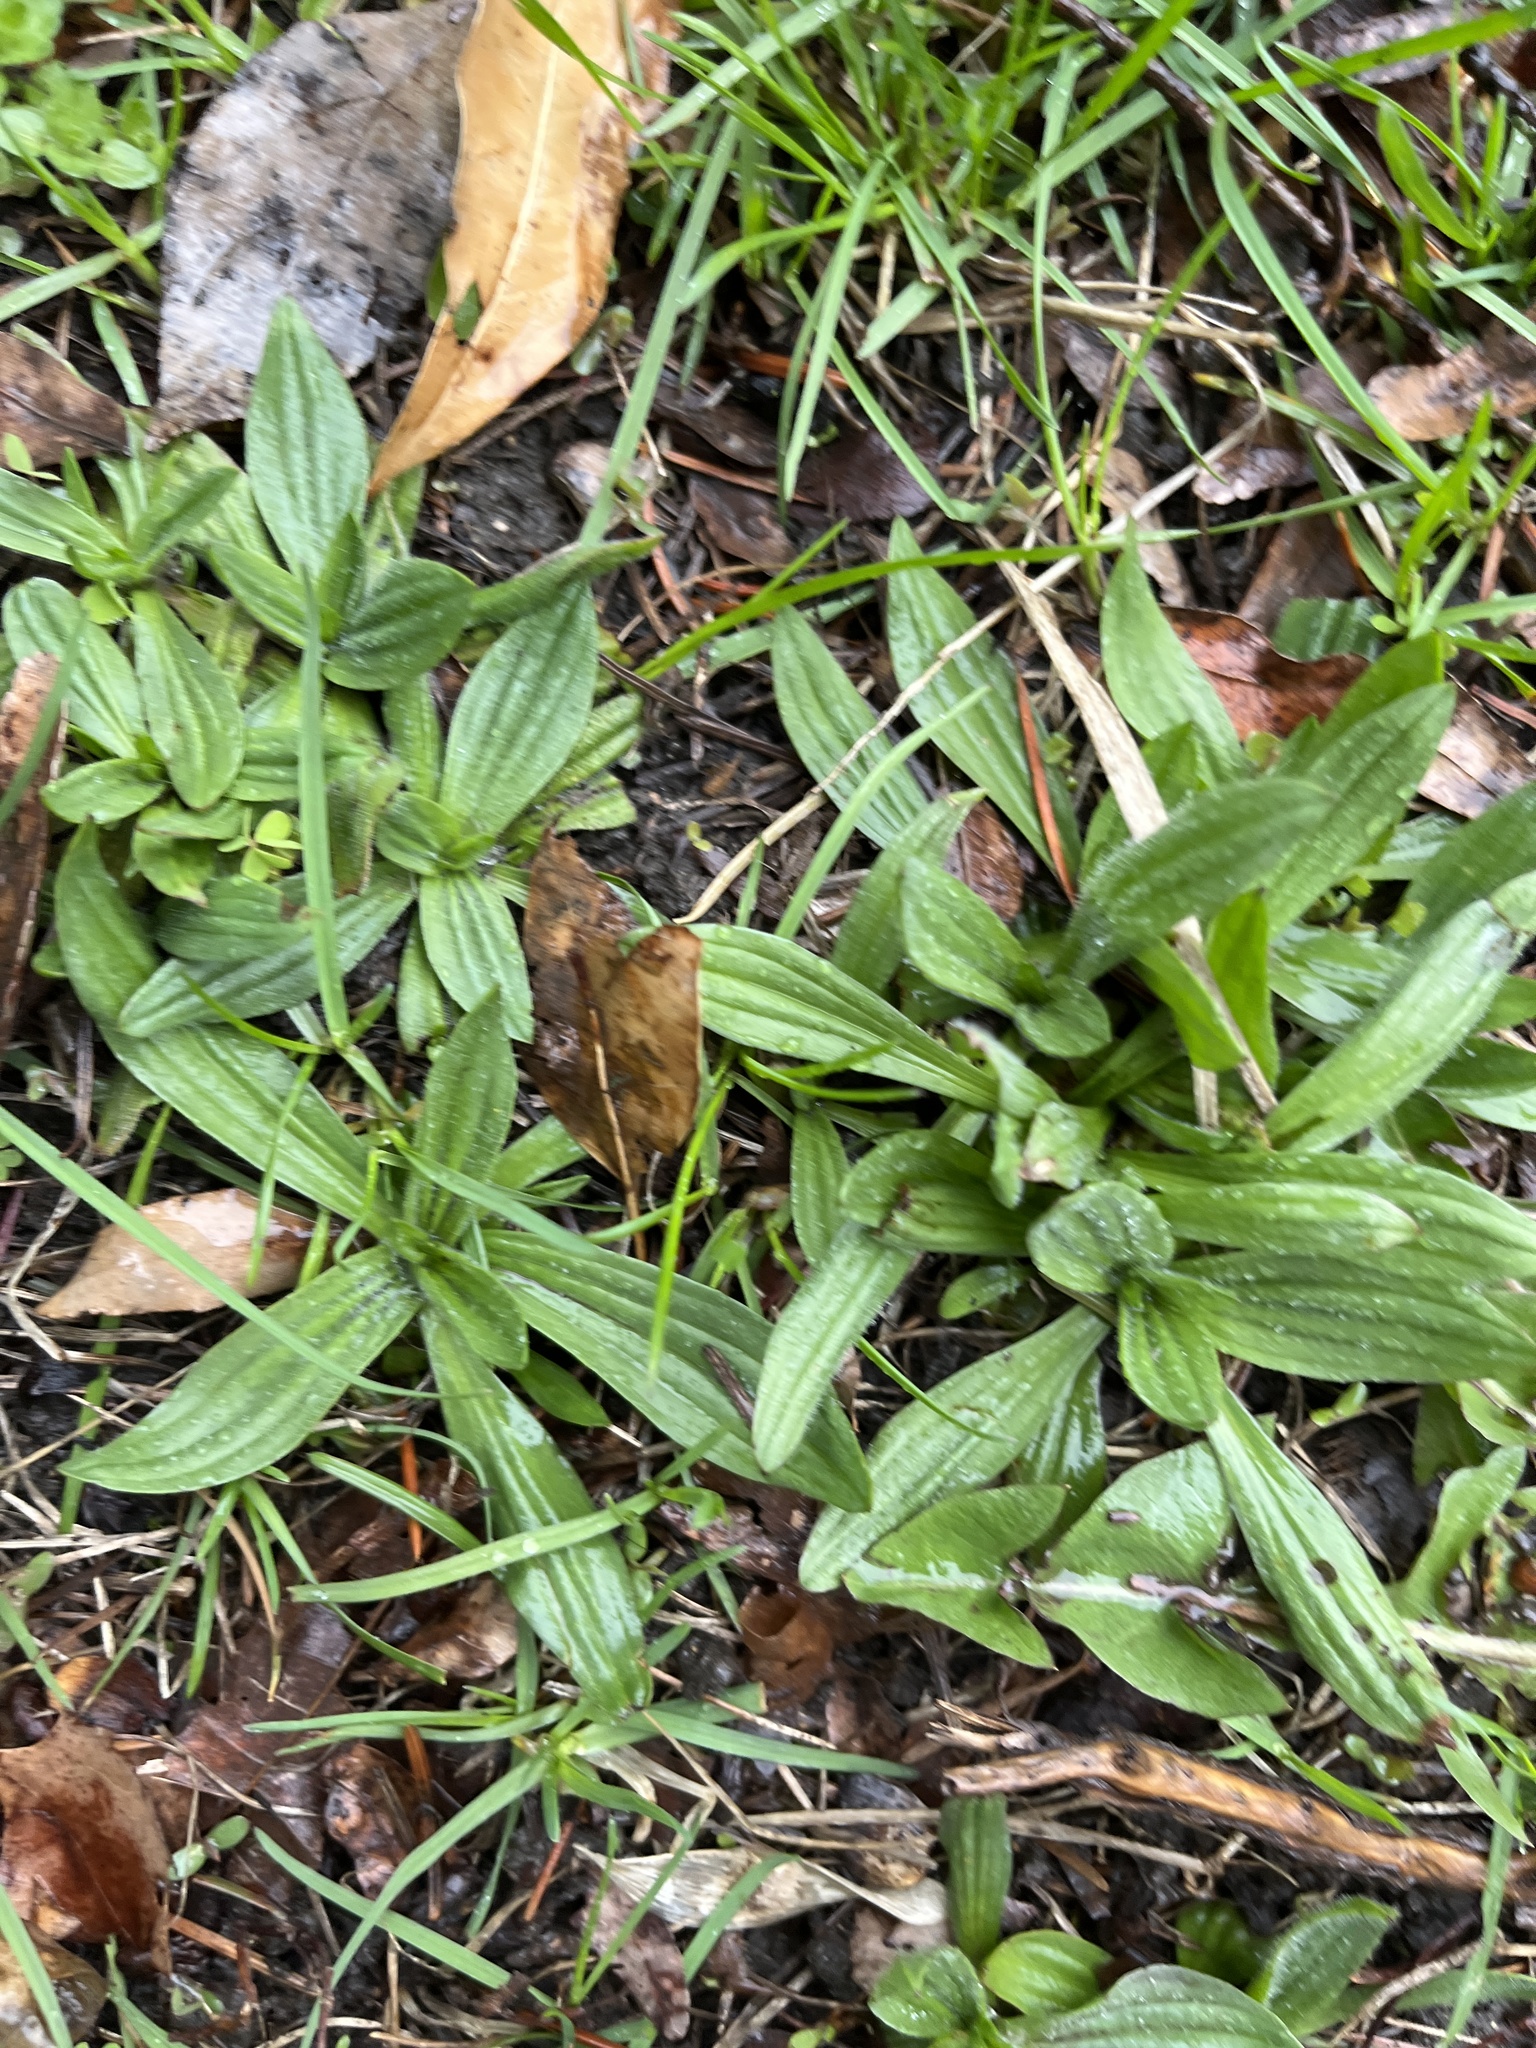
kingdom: Plantae
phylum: Tracheophyta
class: Magnoliopsida
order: Lamiales
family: Plantaginaceae
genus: Plantago
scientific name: Plantago lanceolata
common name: Ribwort plantain
